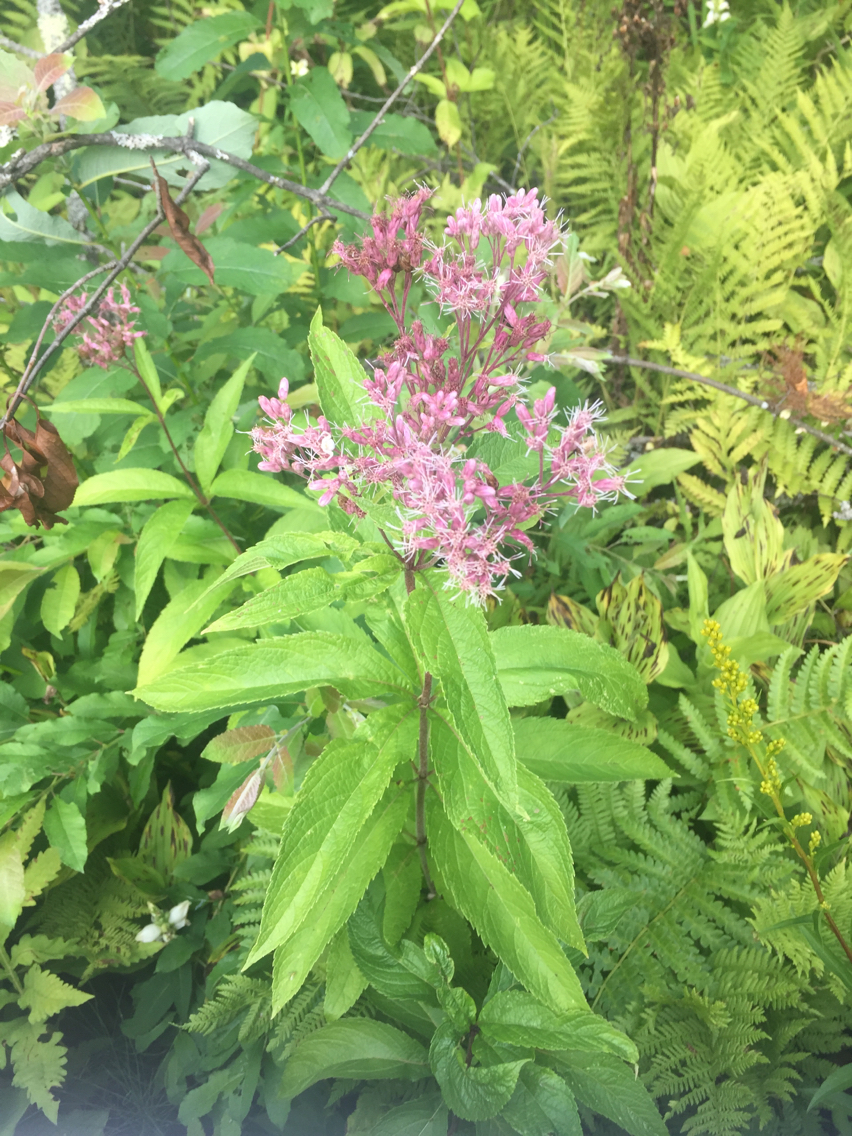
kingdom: Plantae
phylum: Tracheophyta
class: Magnoliopsida
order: Asterales
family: Asteraceae
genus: Eutrochium
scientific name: Eutrochium maculatum
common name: Spotted joe pye weed
